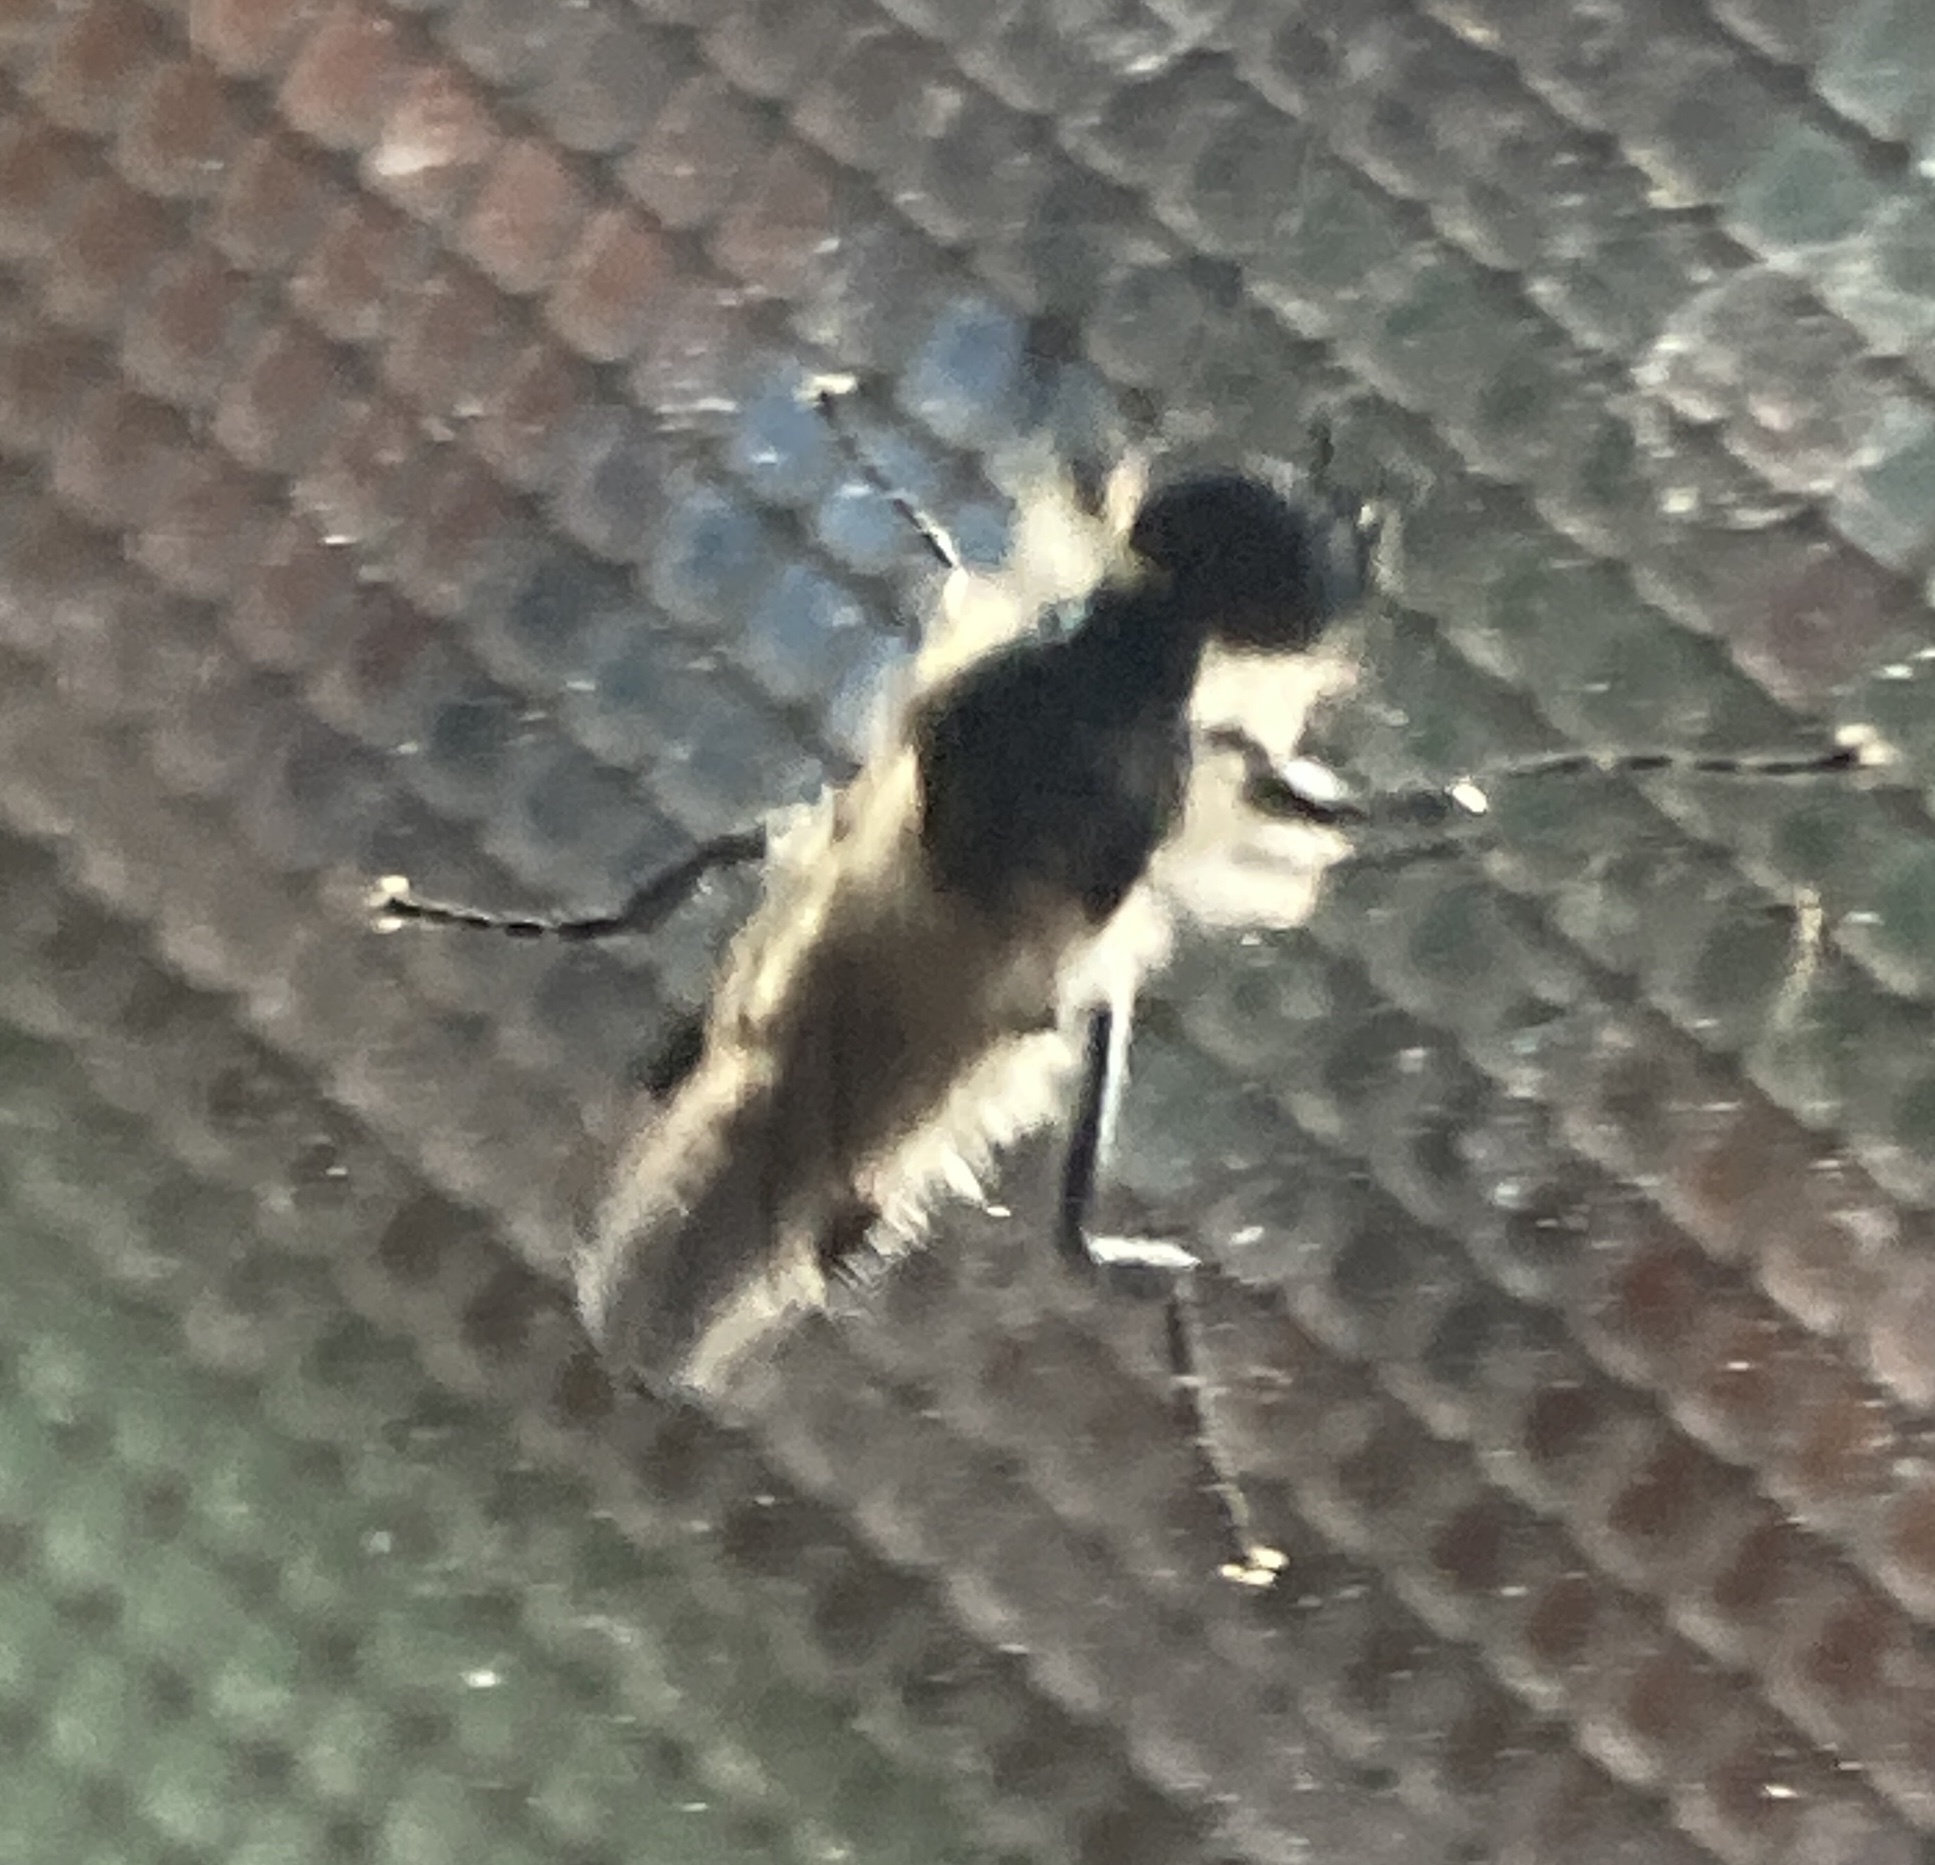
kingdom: Animalia
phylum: Arthropoda
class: Insecta
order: Diptera
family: Bibionidae
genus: Bibio
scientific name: Bibio
